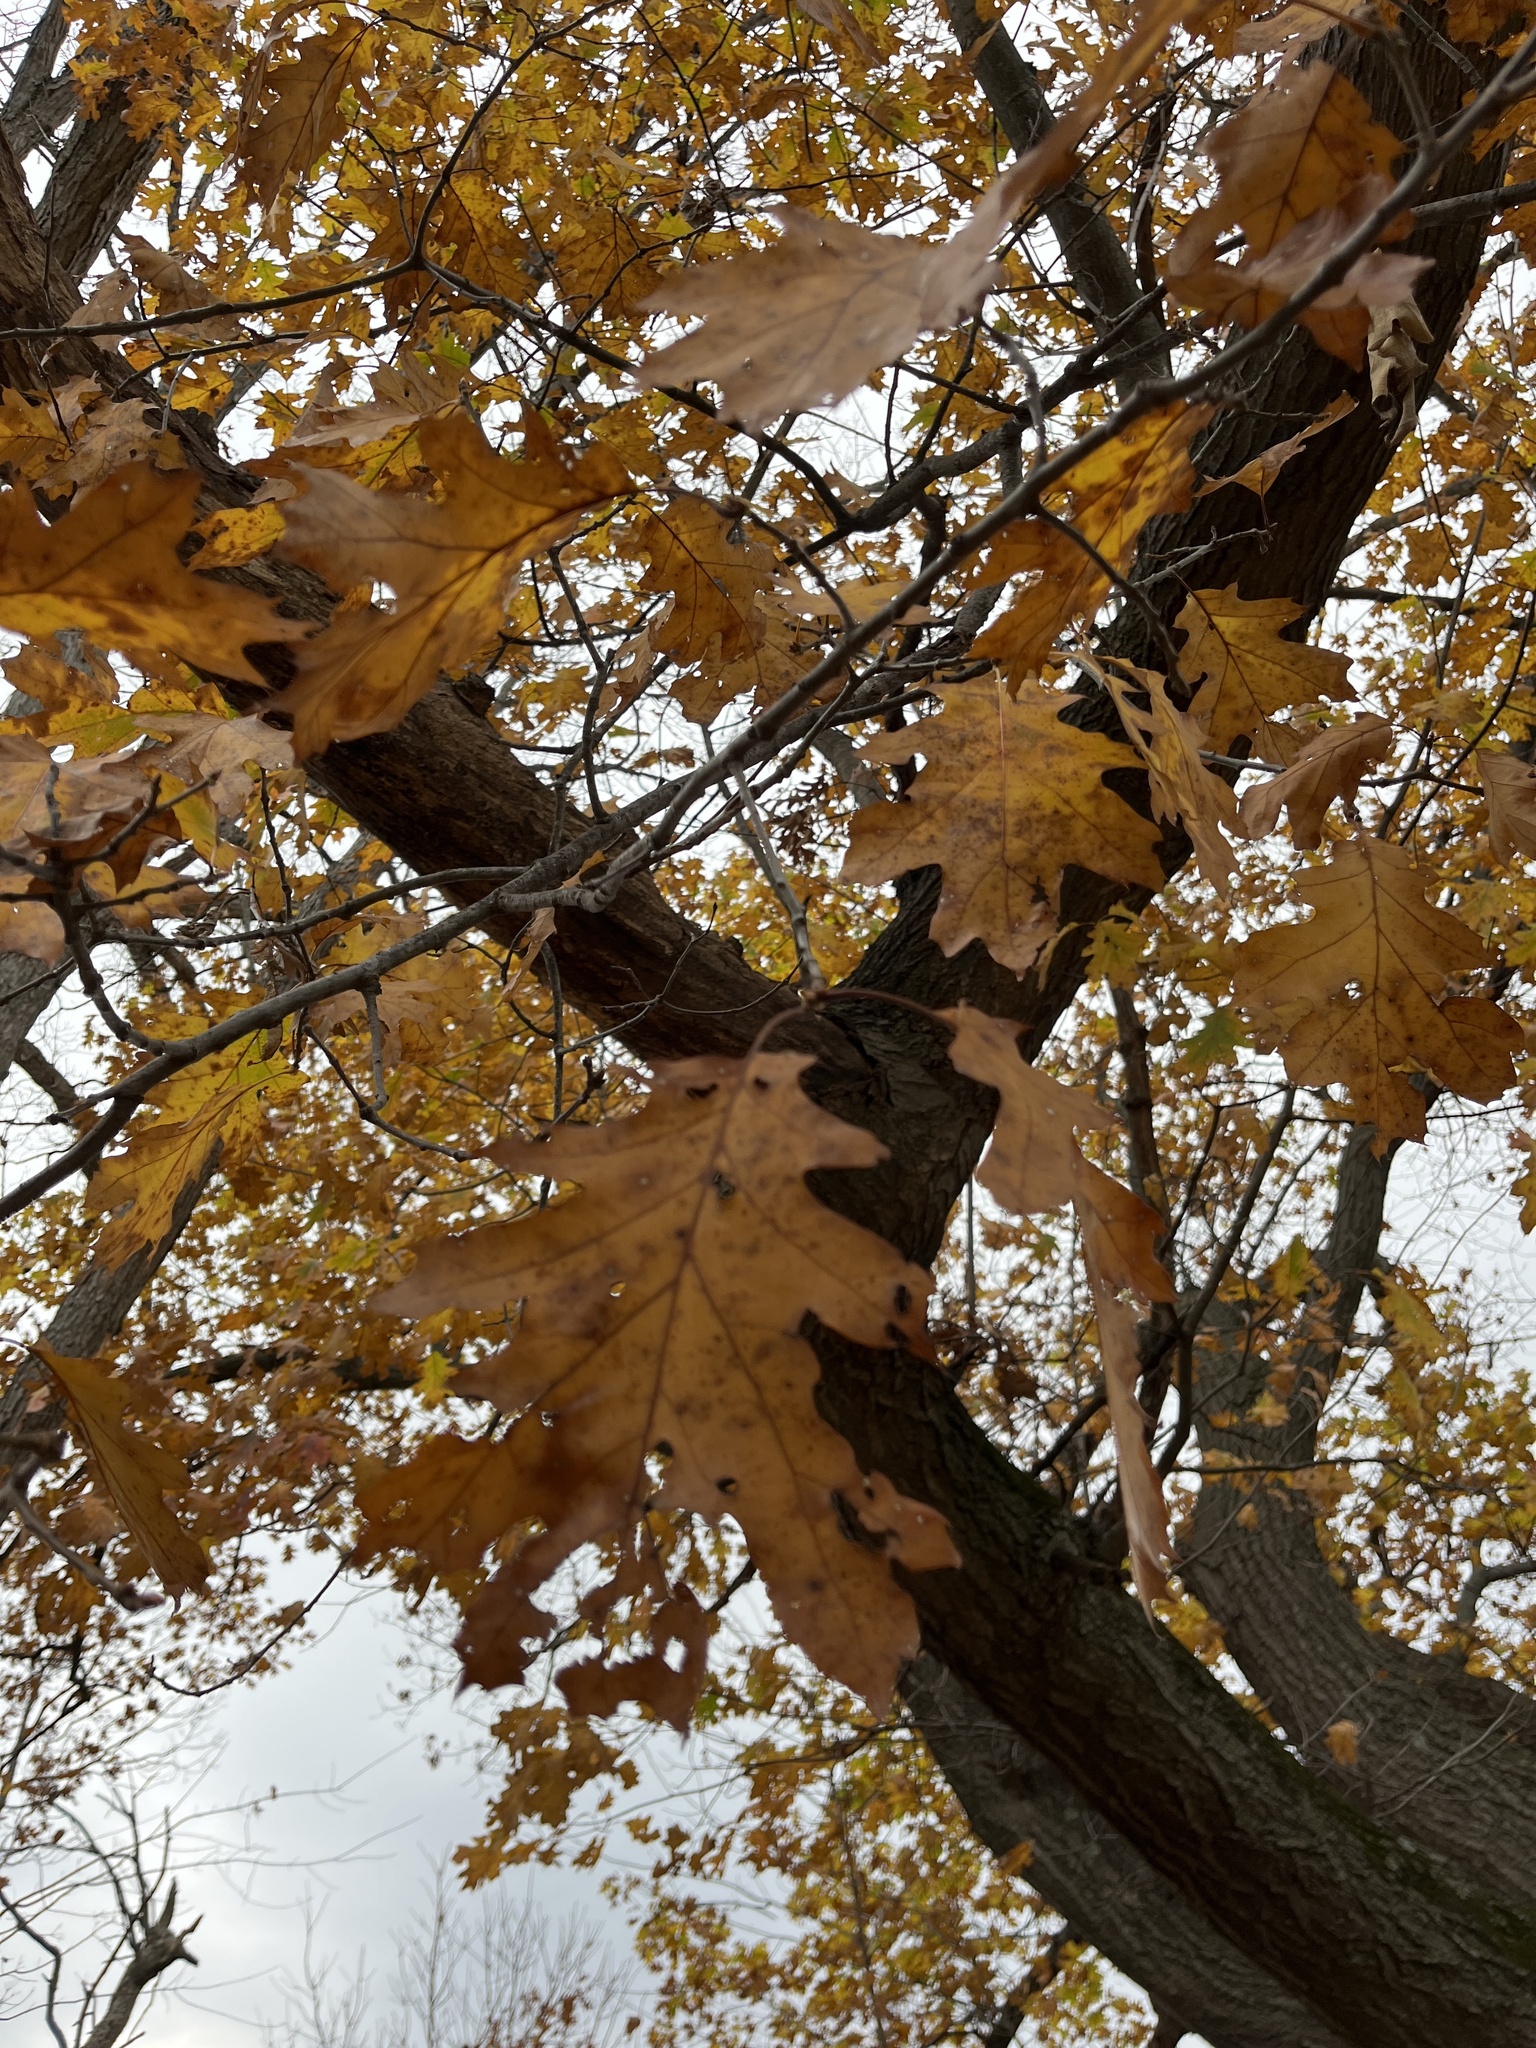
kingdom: Plantae
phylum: Tracheophyta
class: Magnoliopsida
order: Fagales
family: Fagaceae
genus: Quercus
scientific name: Quercus rubra
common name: Red oak
